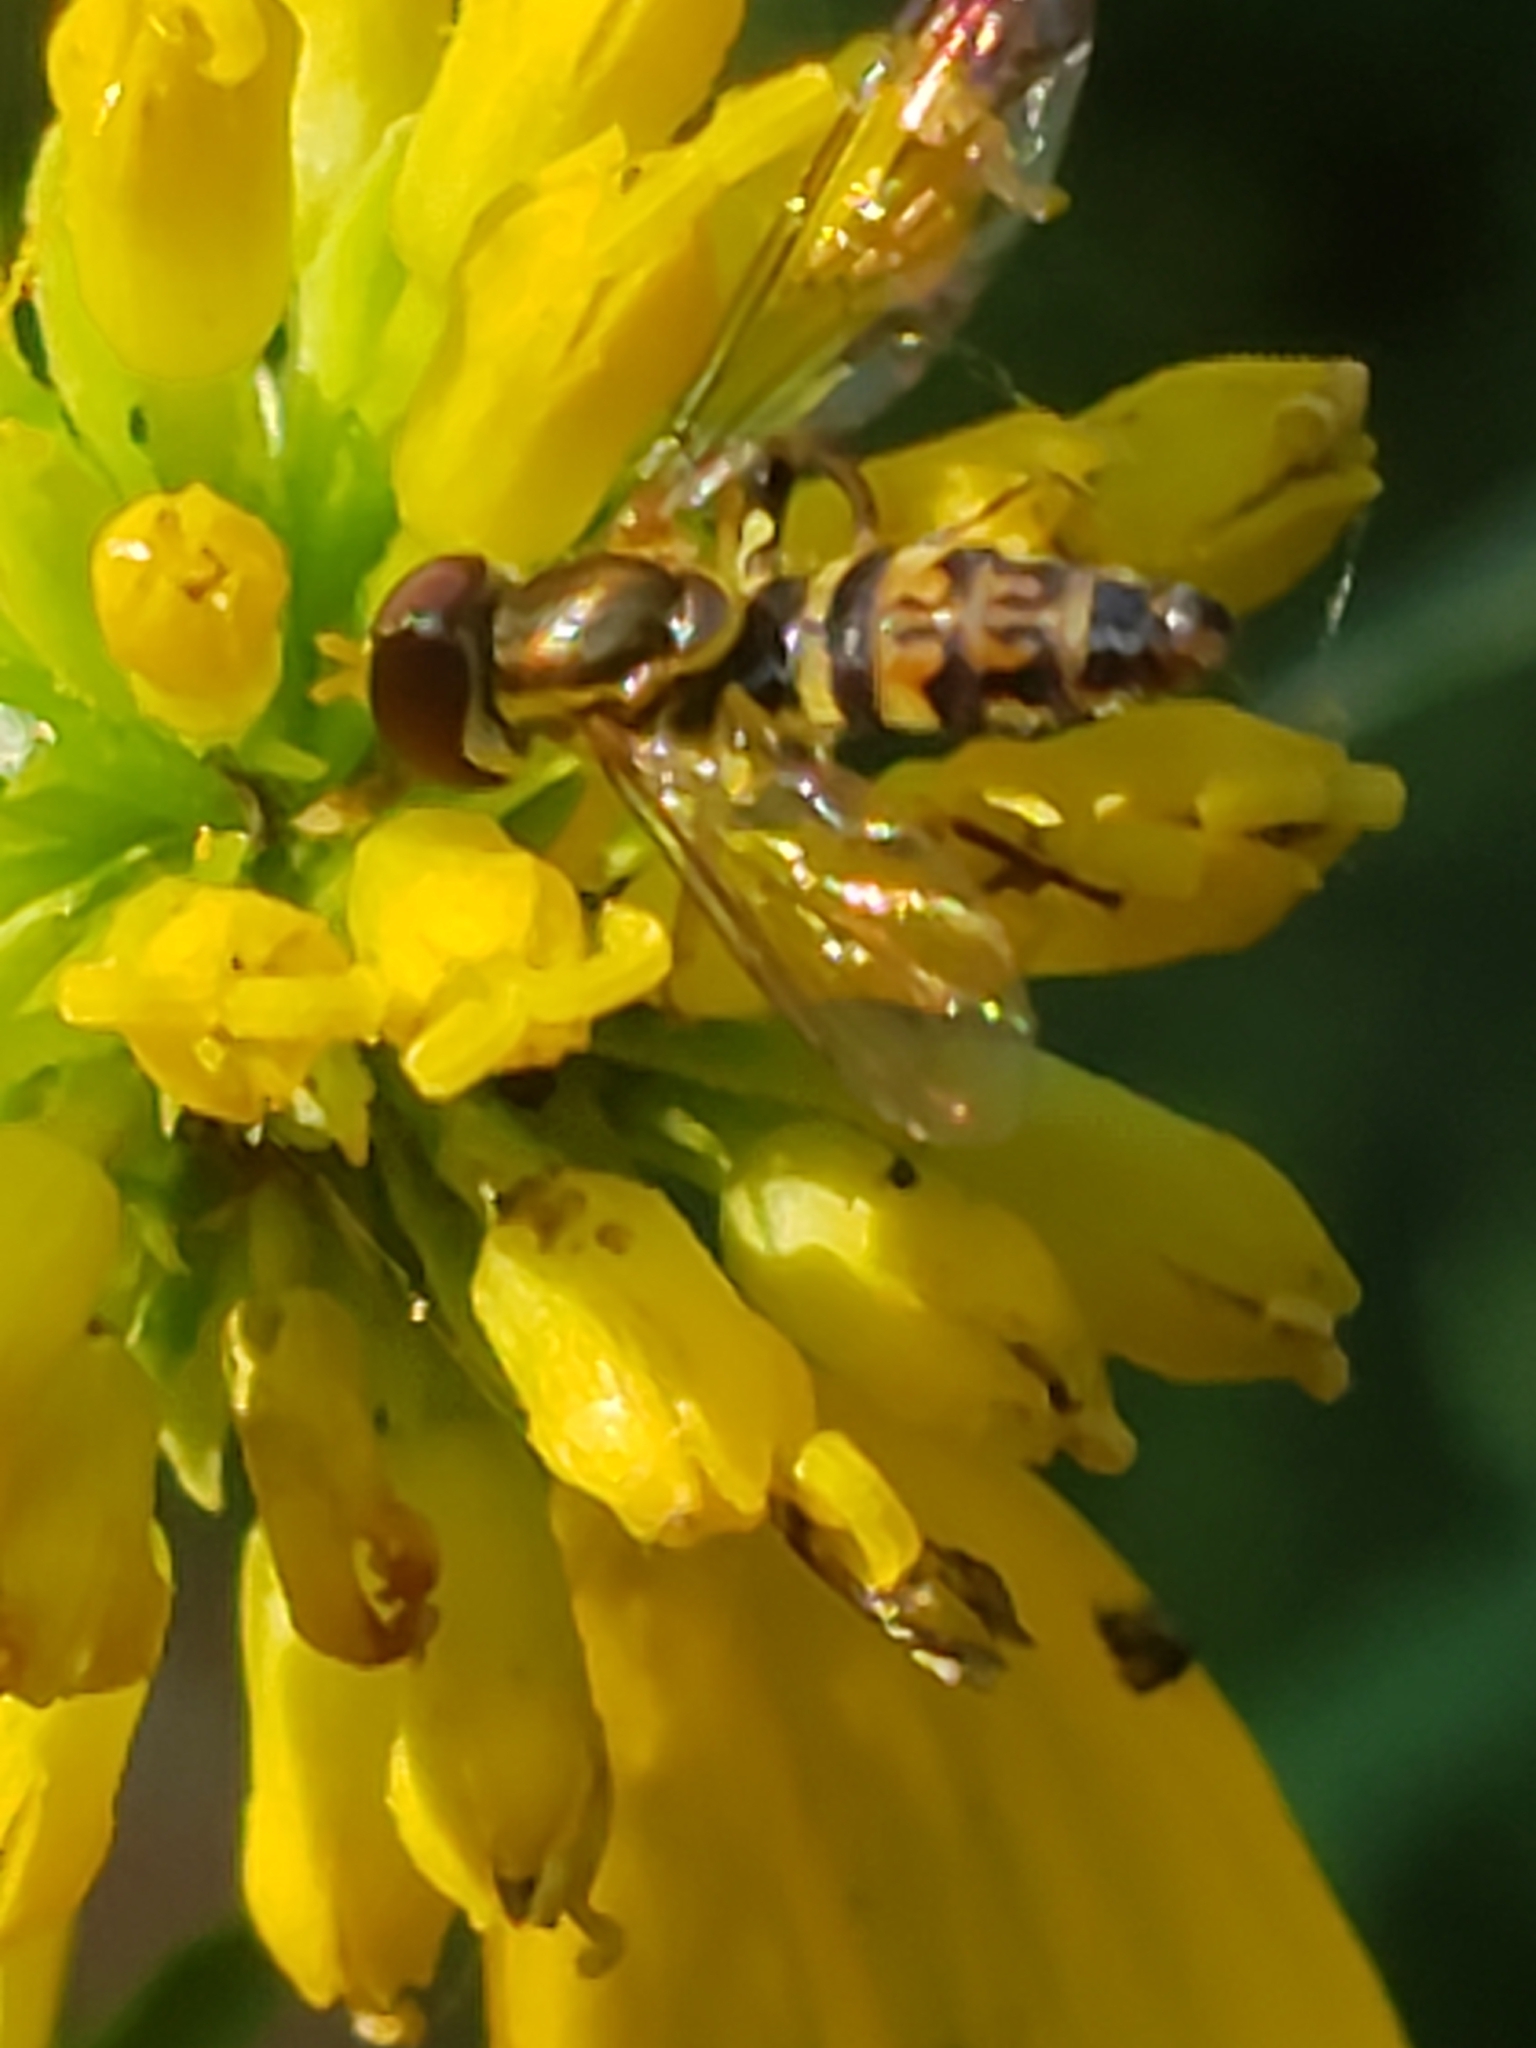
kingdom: Animalia
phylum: Arthropoda
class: Insecta
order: Diptera
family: Syrphidae
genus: Toxomerus
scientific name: Toxomerus geminatus
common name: Eastern calligrapher
